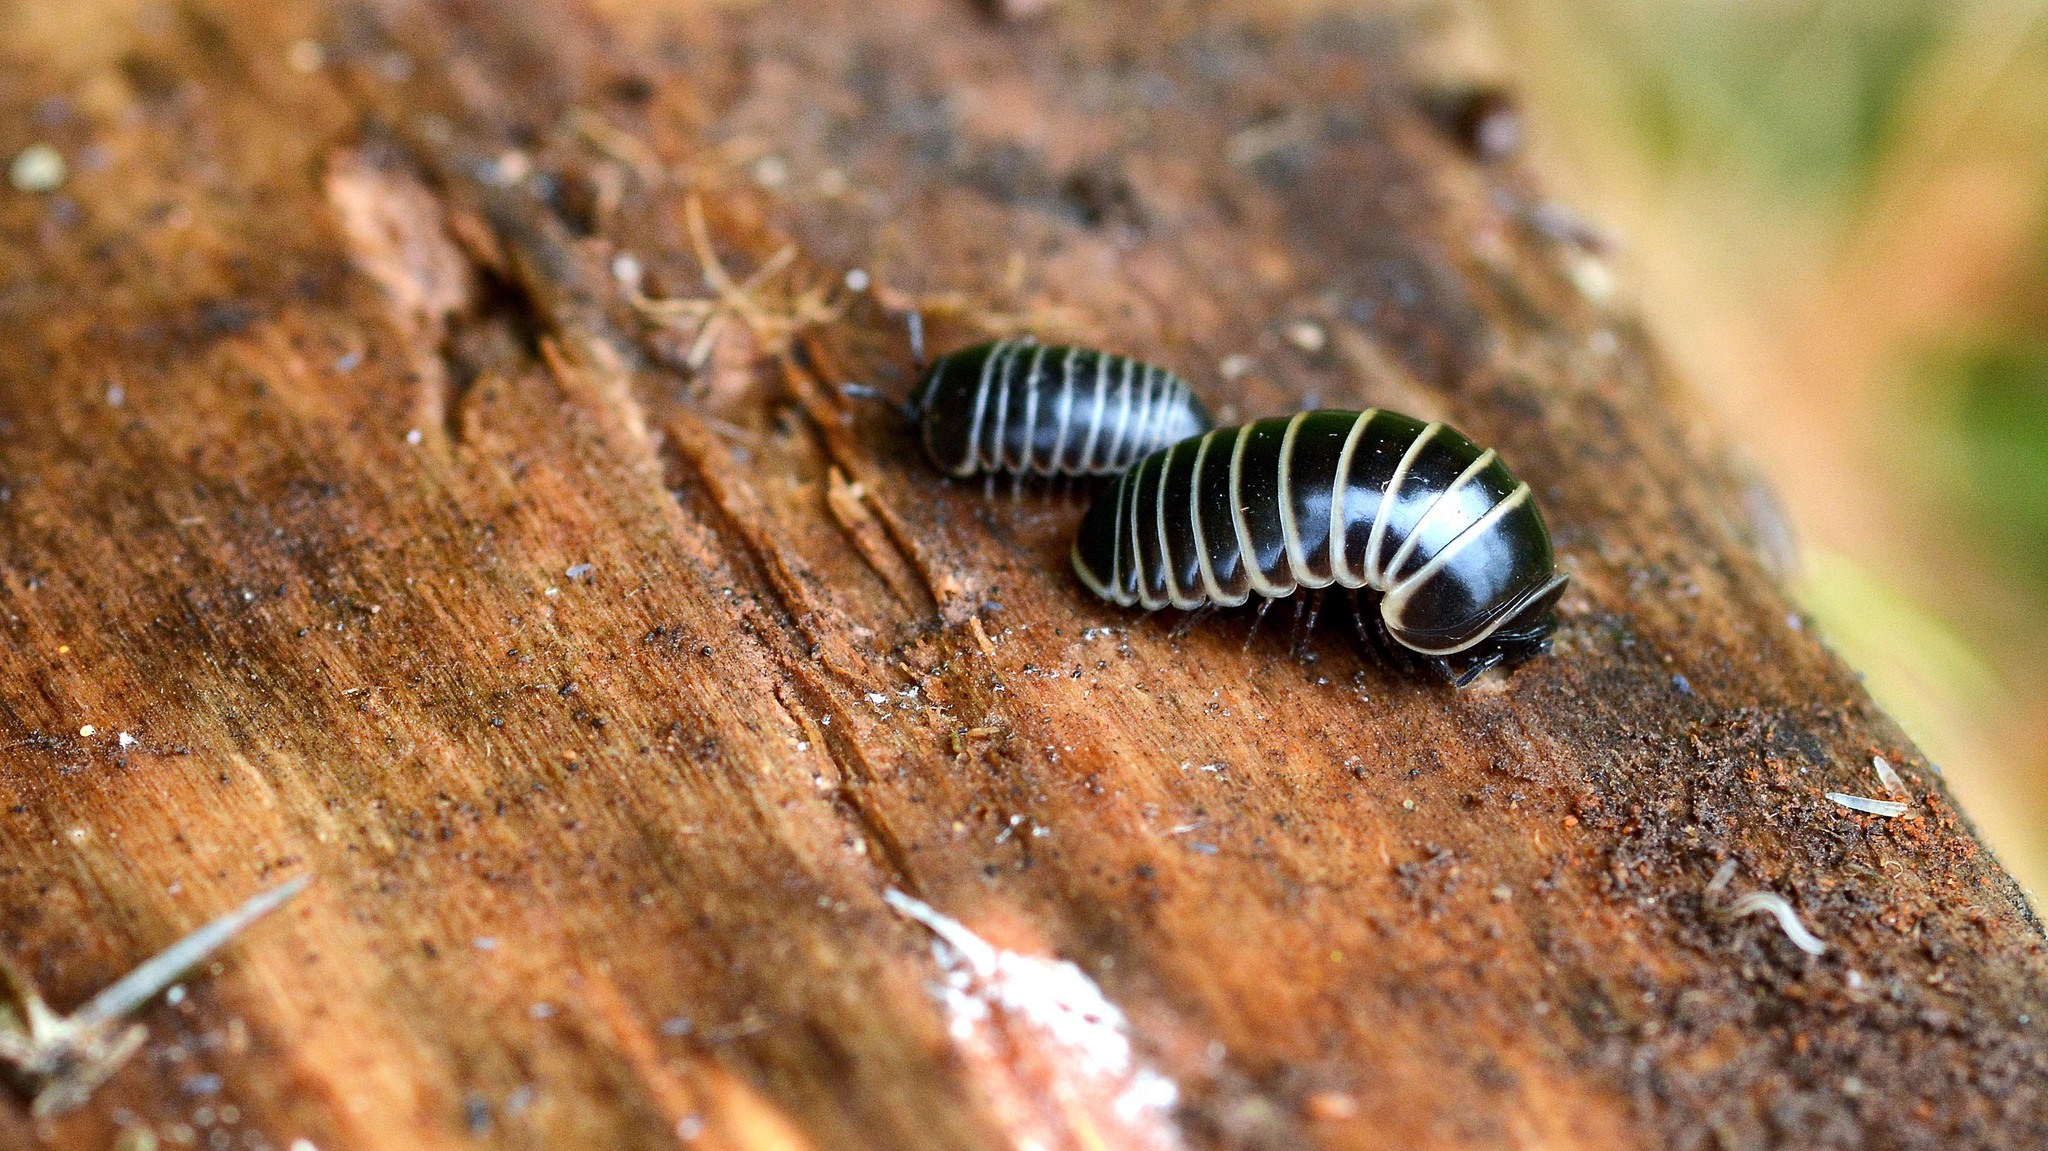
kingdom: Animalia
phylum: Arthropoda
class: Diplopoda
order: Glomerida
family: Glomeridae
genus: Glomeris
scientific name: Glomeris marginata
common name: Bordered pill millipede
